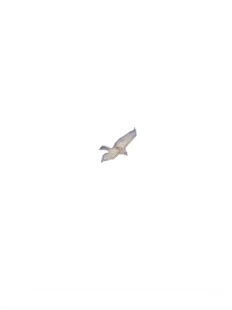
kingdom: Animalia
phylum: Chordata
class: Aves
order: Accipitriformes
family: Accipitridae
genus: Buteo
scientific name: Buteo jamaicensis
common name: Red-tailed hawk
